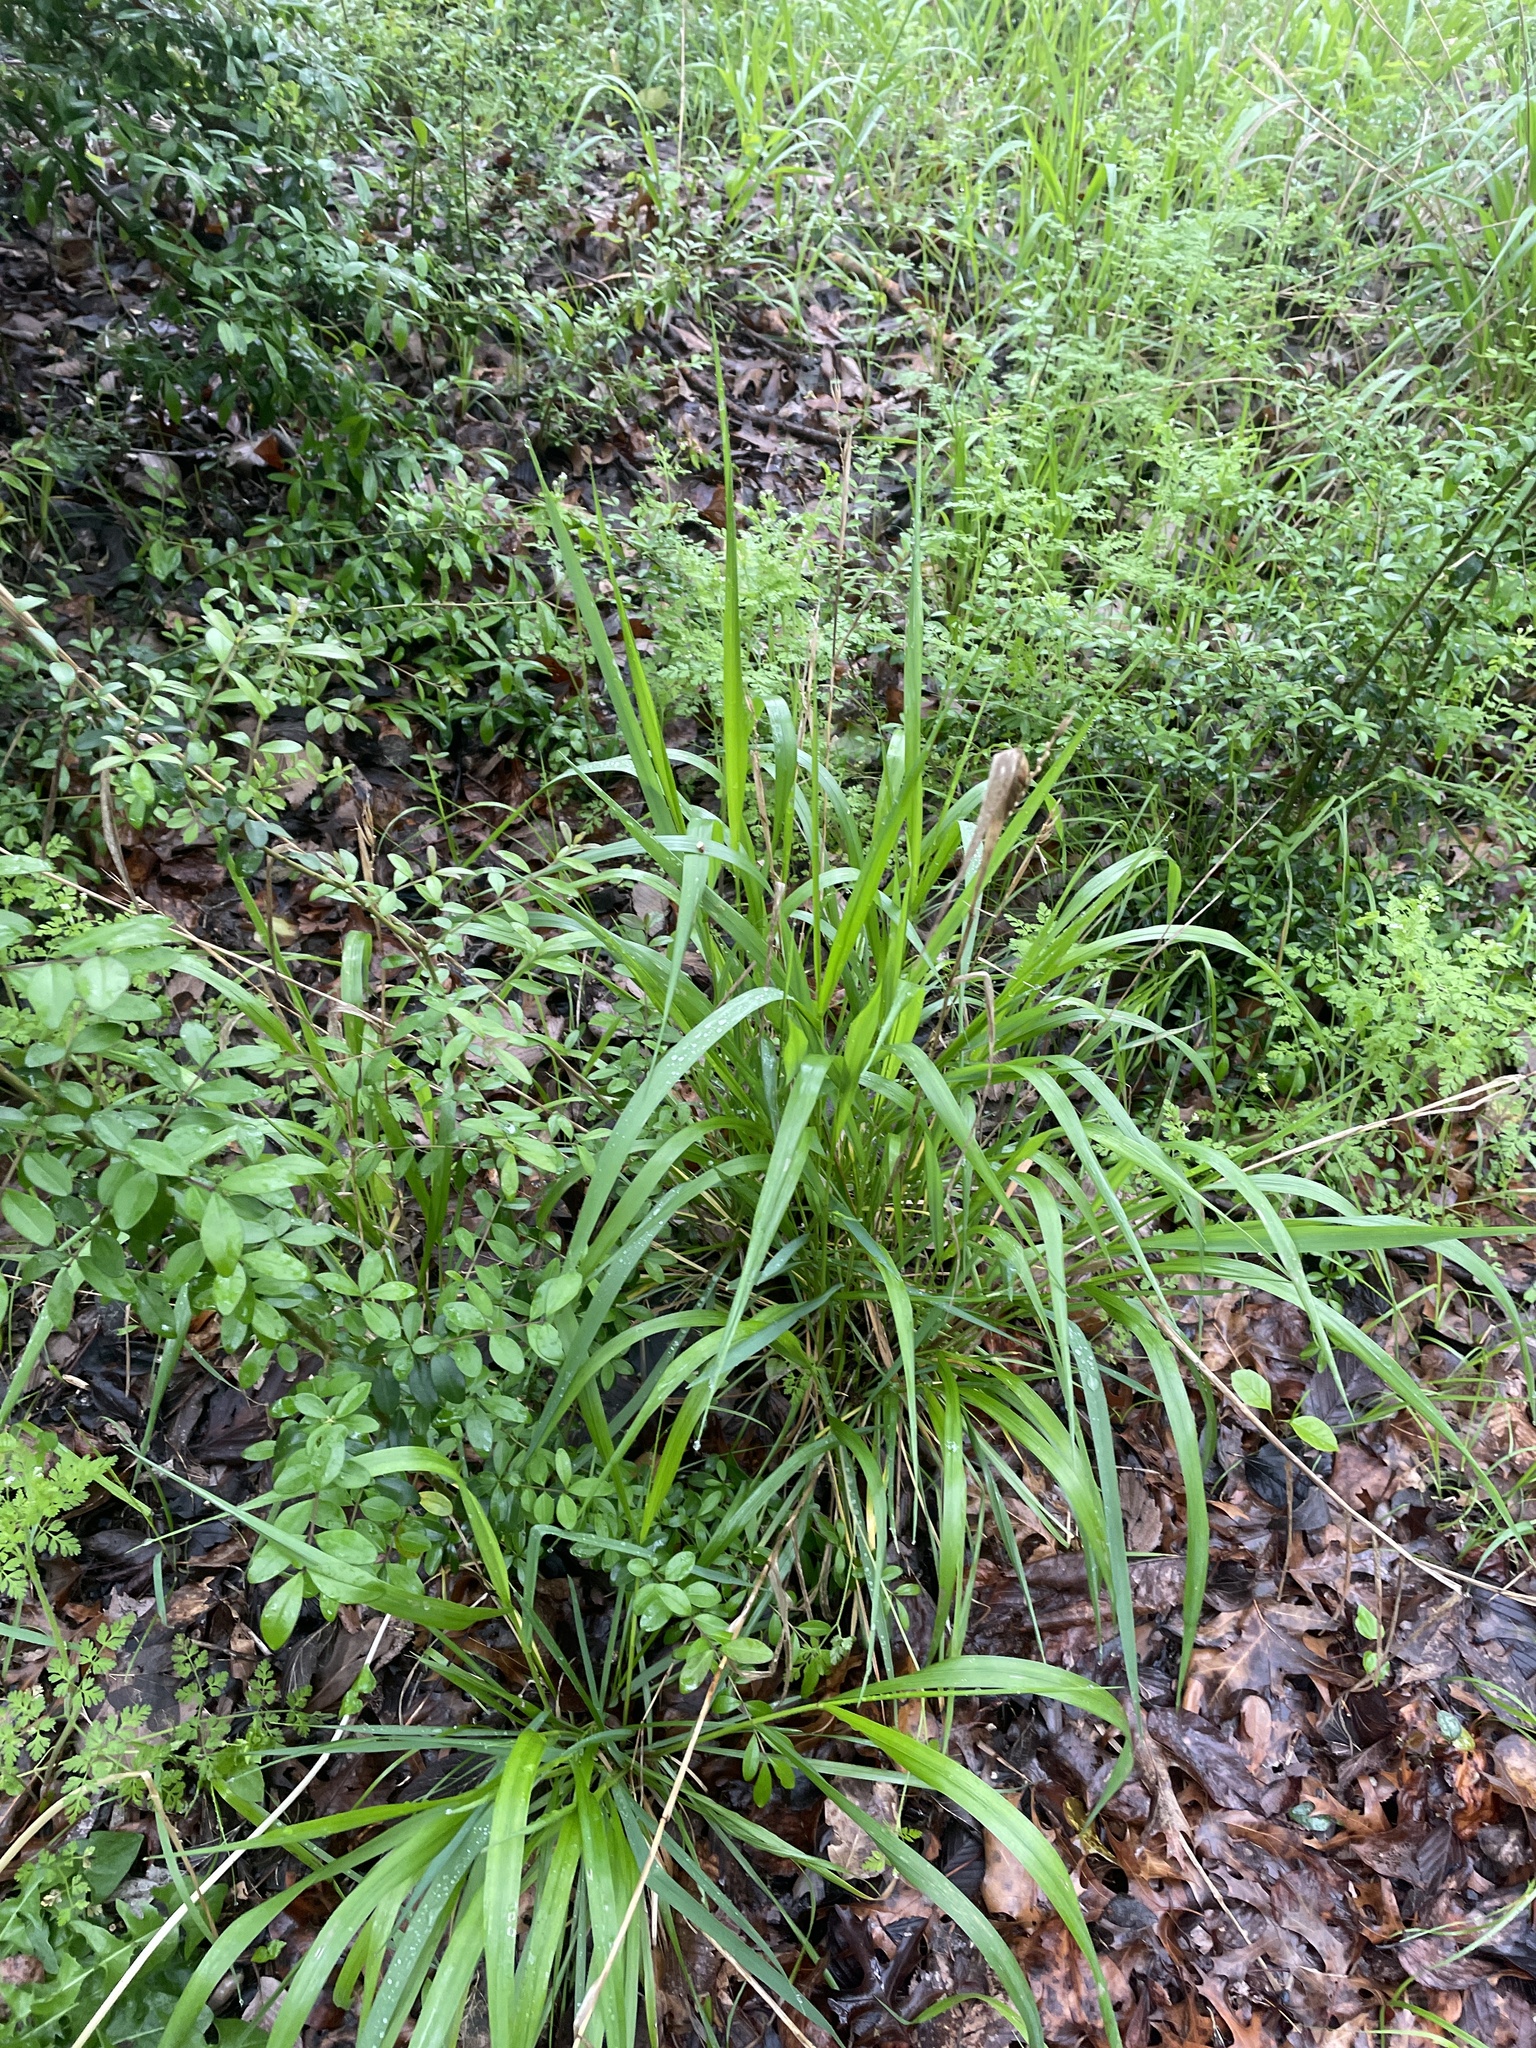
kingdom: Plantae
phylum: Tracheophyta
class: Liliopsida
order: Poales
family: Poaceae
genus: Elymus
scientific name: Elymus virginicus
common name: Common eastern wildrye
